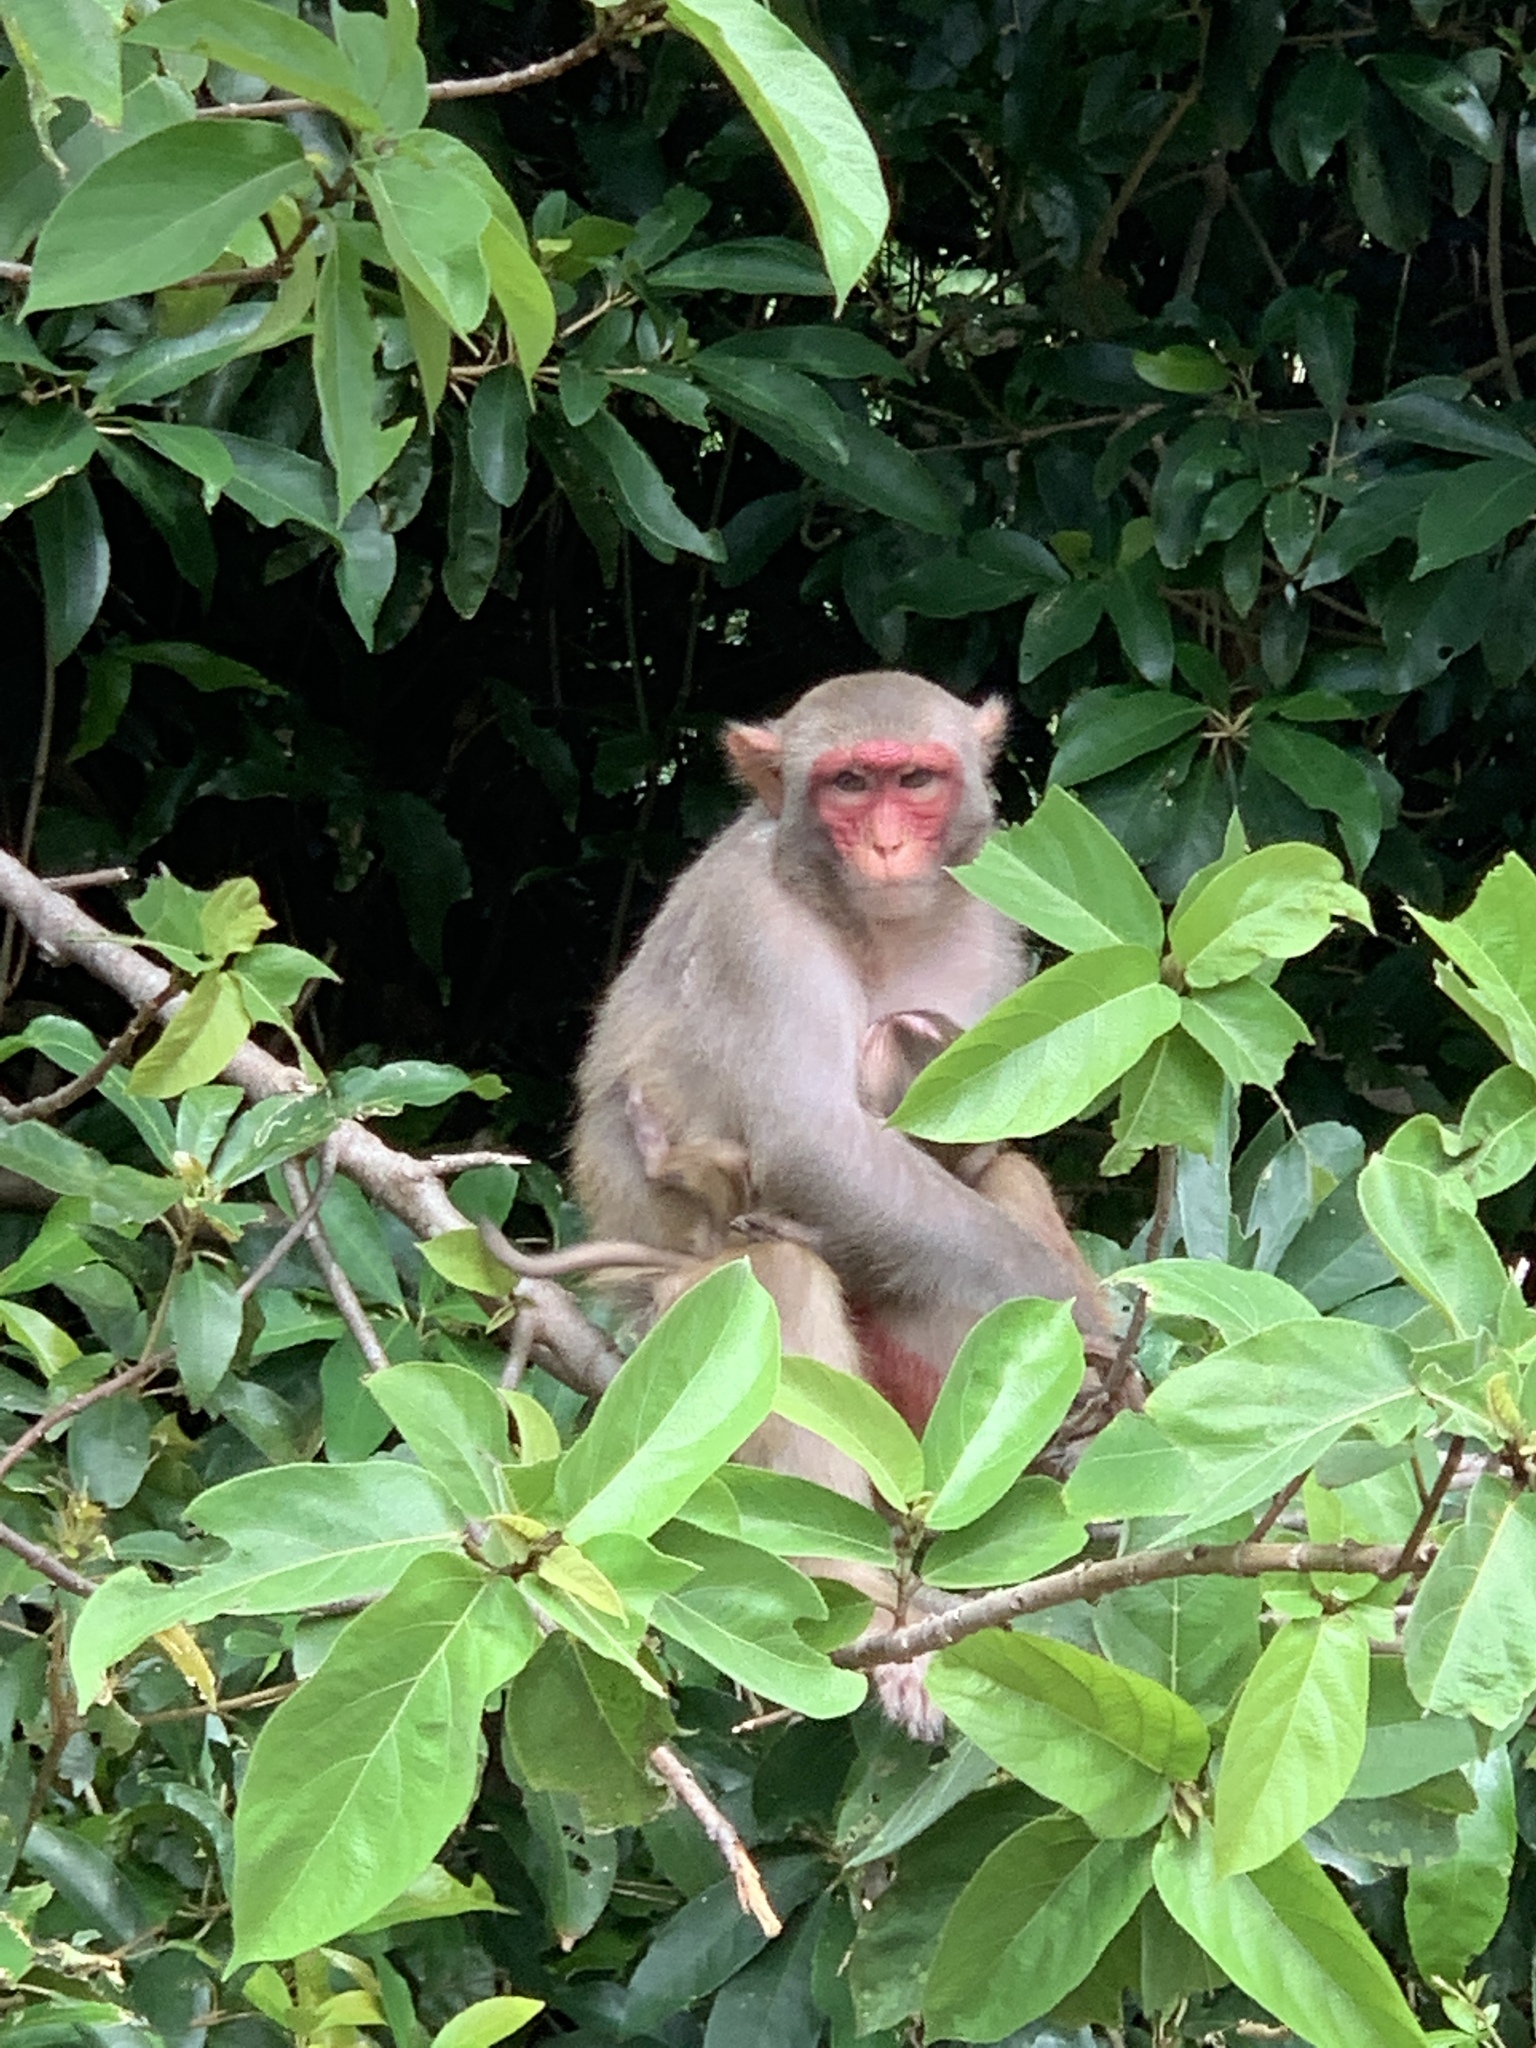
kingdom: Animalia
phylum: Chordata
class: Mammalia
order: Primates
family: Cercopithecidae
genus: Macaca
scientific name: Macaca mulatta
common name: Rhesus monkey
